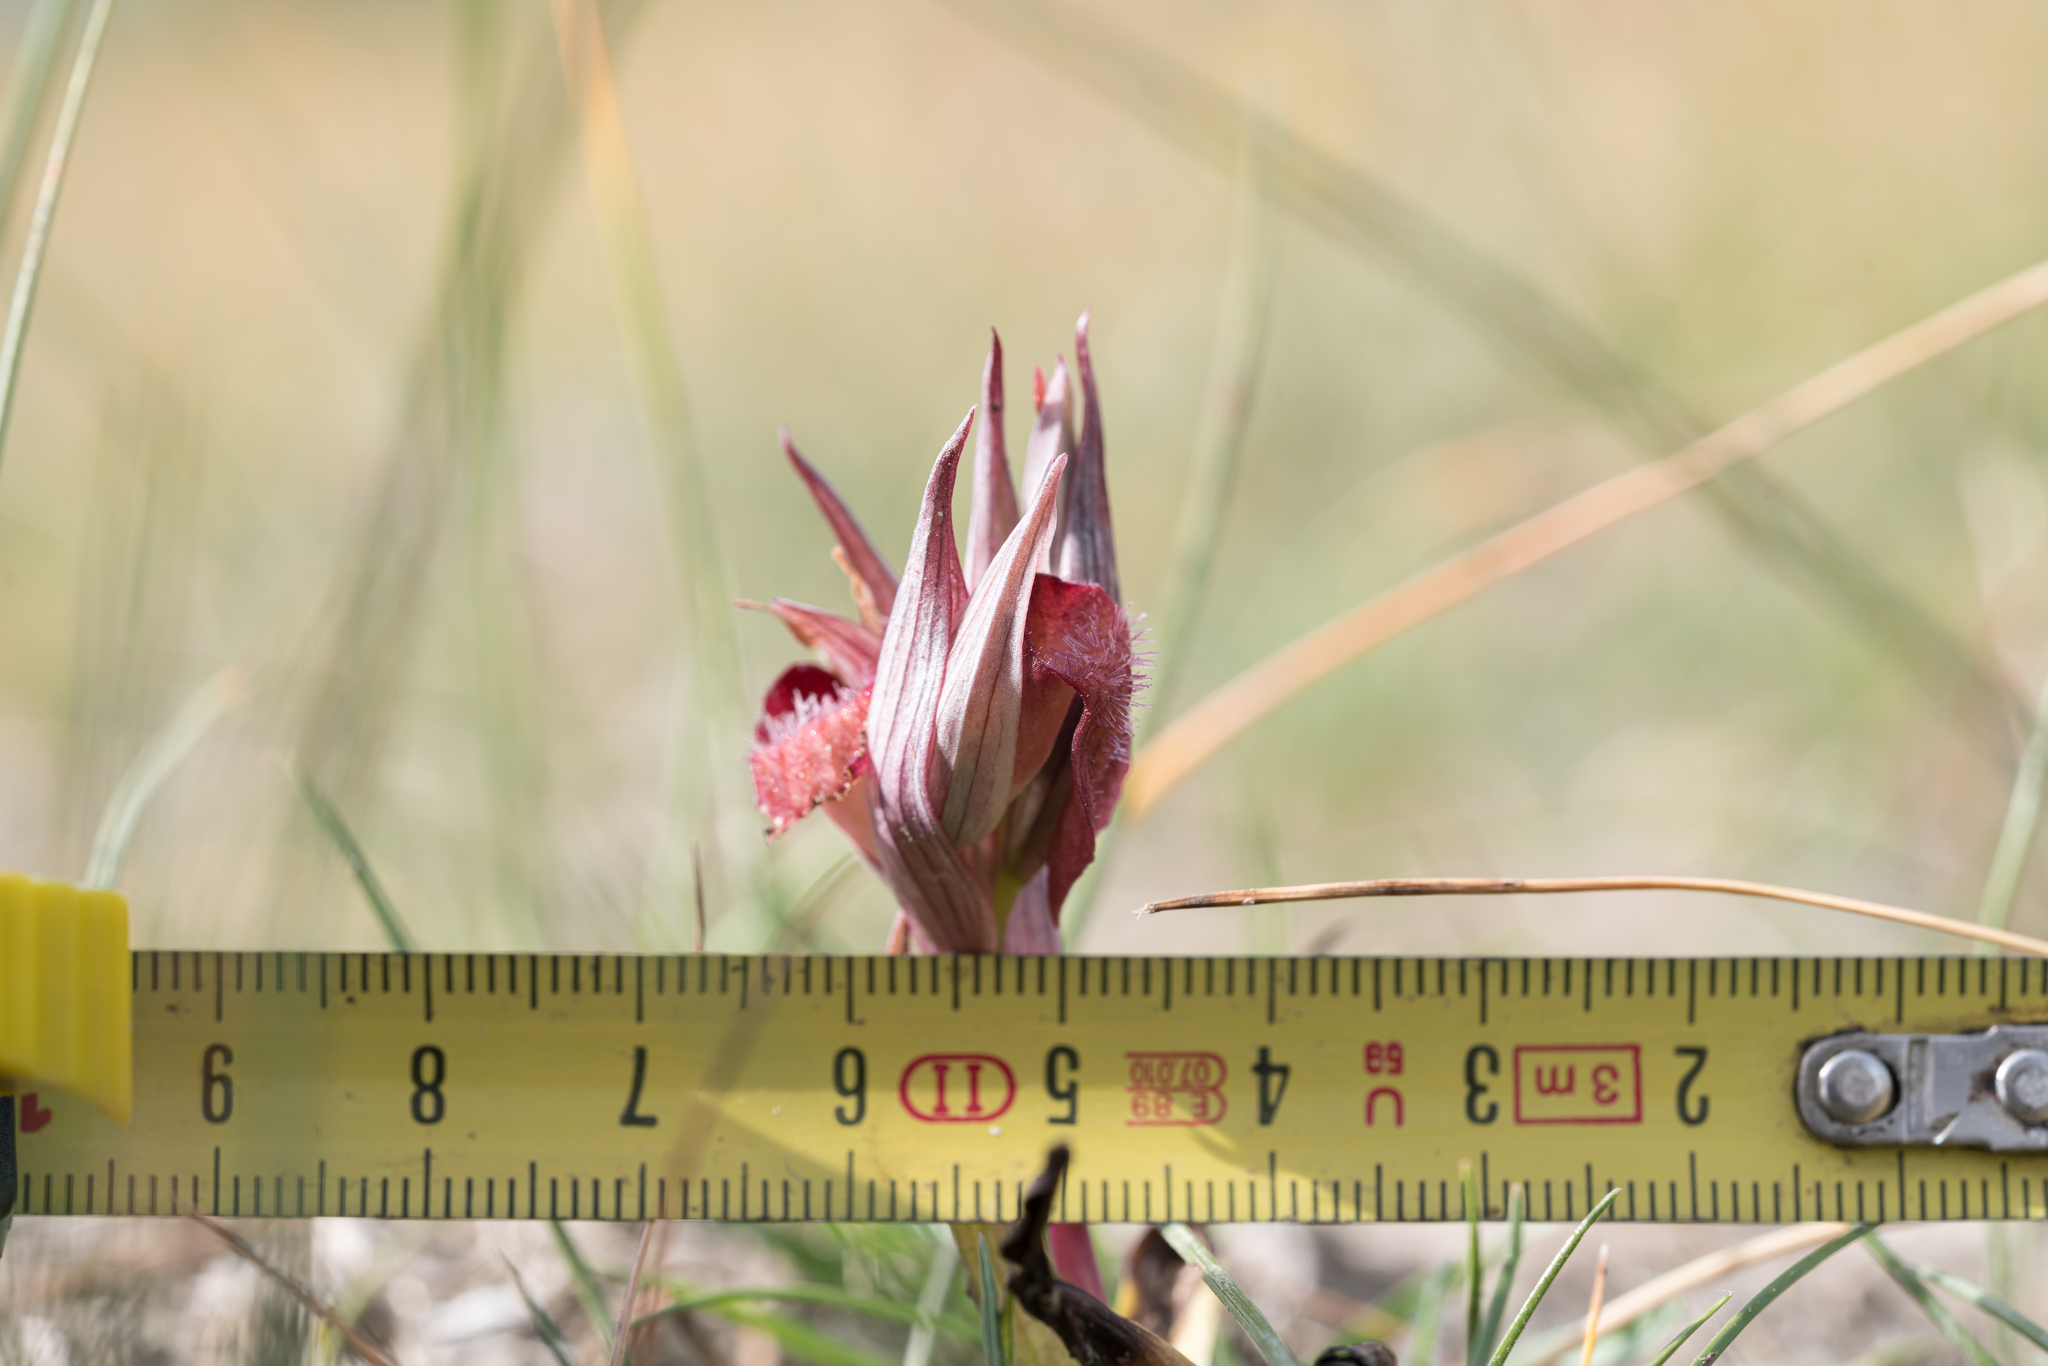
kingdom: Plantae
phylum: Tracheophyta
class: Liliopsida
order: Asparagales
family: Orchidaceae
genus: Serapias
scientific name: Serapias orientalis
